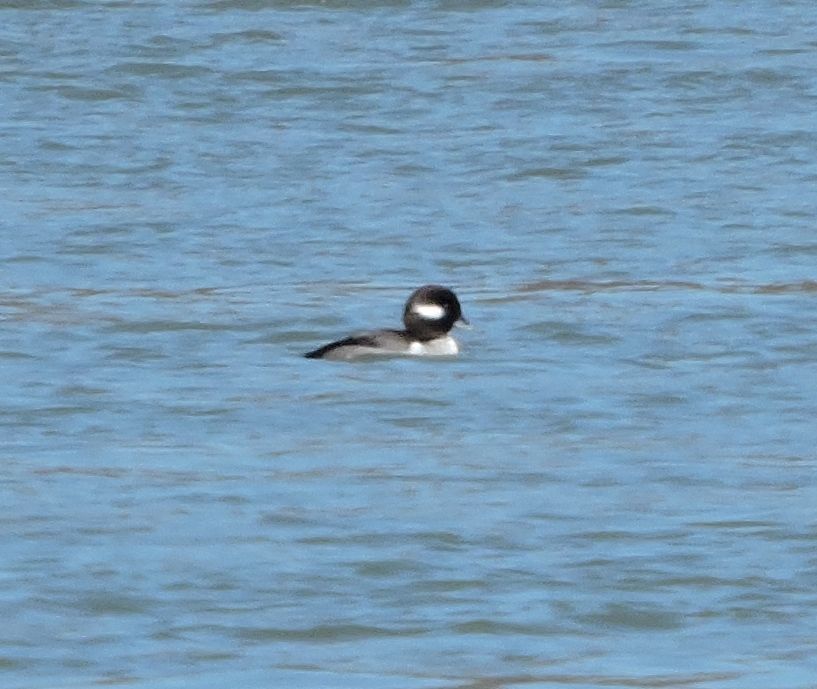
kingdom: Animalia
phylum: Chordata
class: Aves
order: Anseriformes
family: Anatidae
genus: Bucephala
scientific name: Bucephala albeola
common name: Bufflehead
